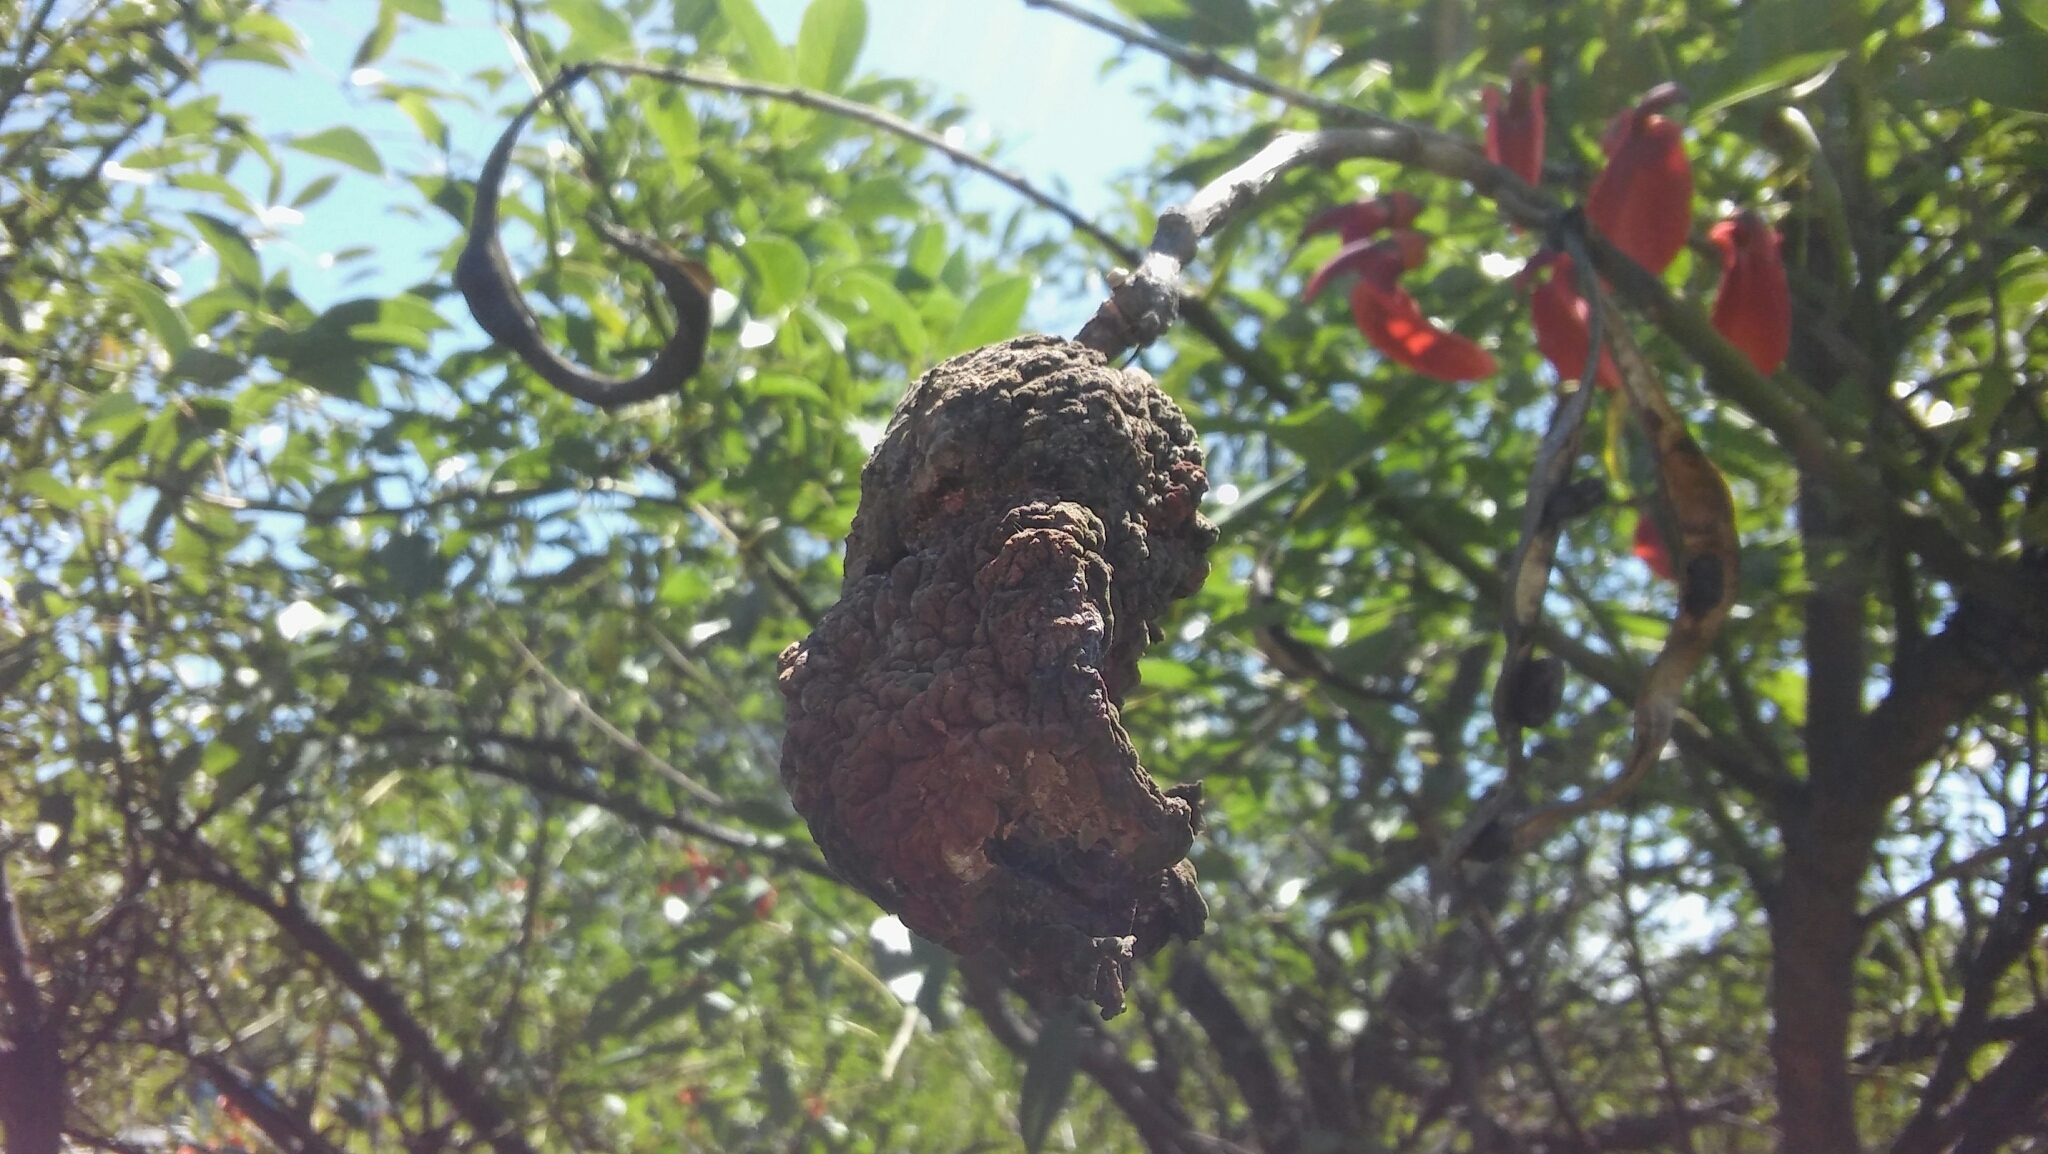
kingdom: Fungi
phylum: Basidiomycota
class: Pucciniomycetes
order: Pucciniales
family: Raveneliaceae
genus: Ravenelia
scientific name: Ravenelia platensis
